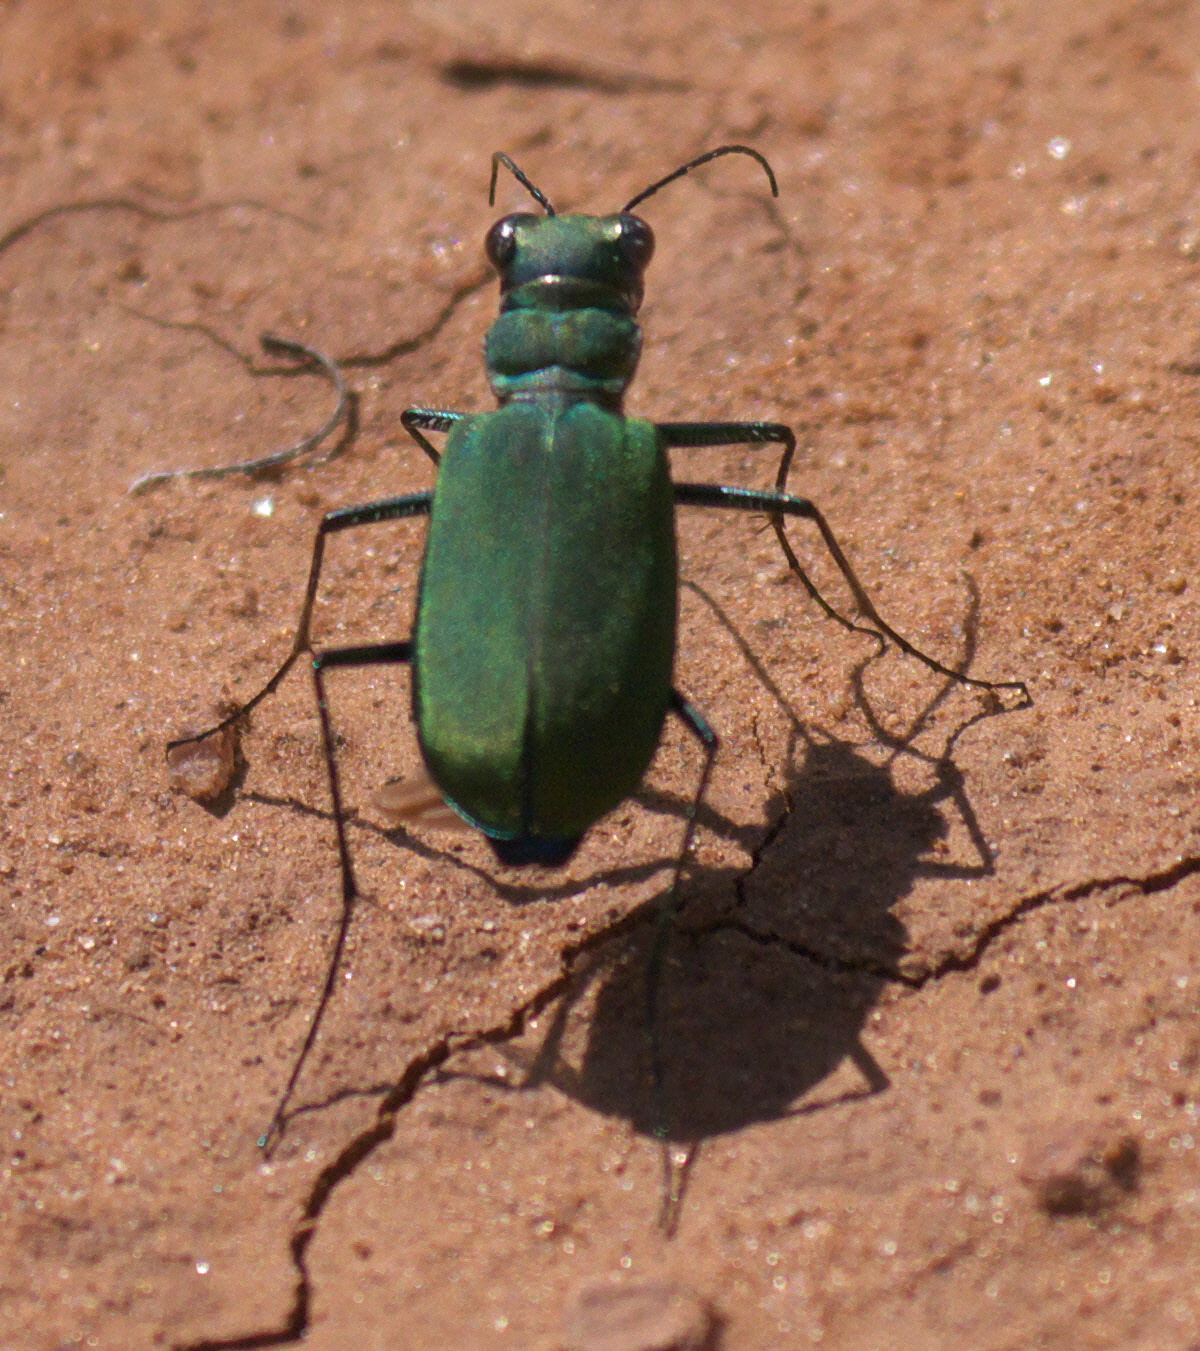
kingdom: Animalia
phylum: Arthropoda
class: Insecta
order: Coleoptera
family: Carabidae
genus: Cicindela
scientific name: Cicindela obsoleta
